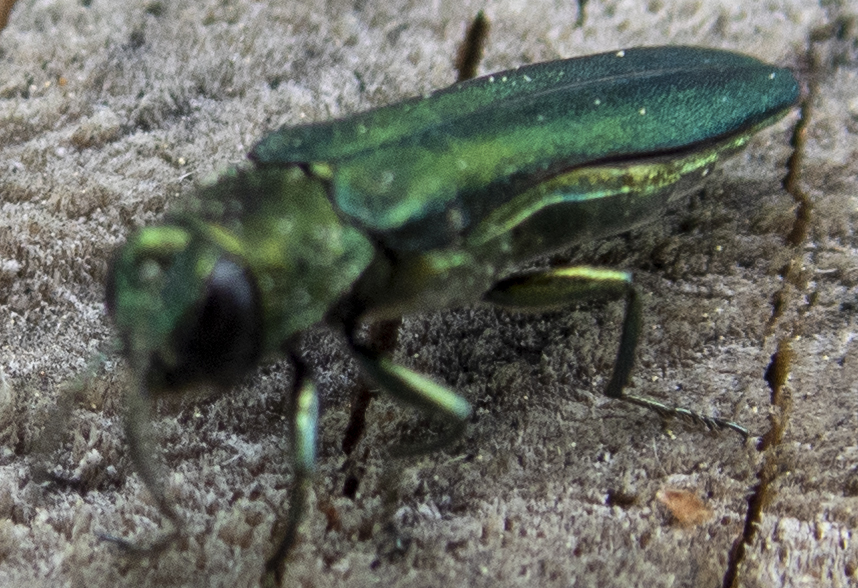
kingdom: Animalia
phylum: Arthropoda
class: Insecta
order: Coleoptera
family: Buprestidae
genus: Agrilus
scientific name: Agrilus planipennis
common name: Emerald ash borer
